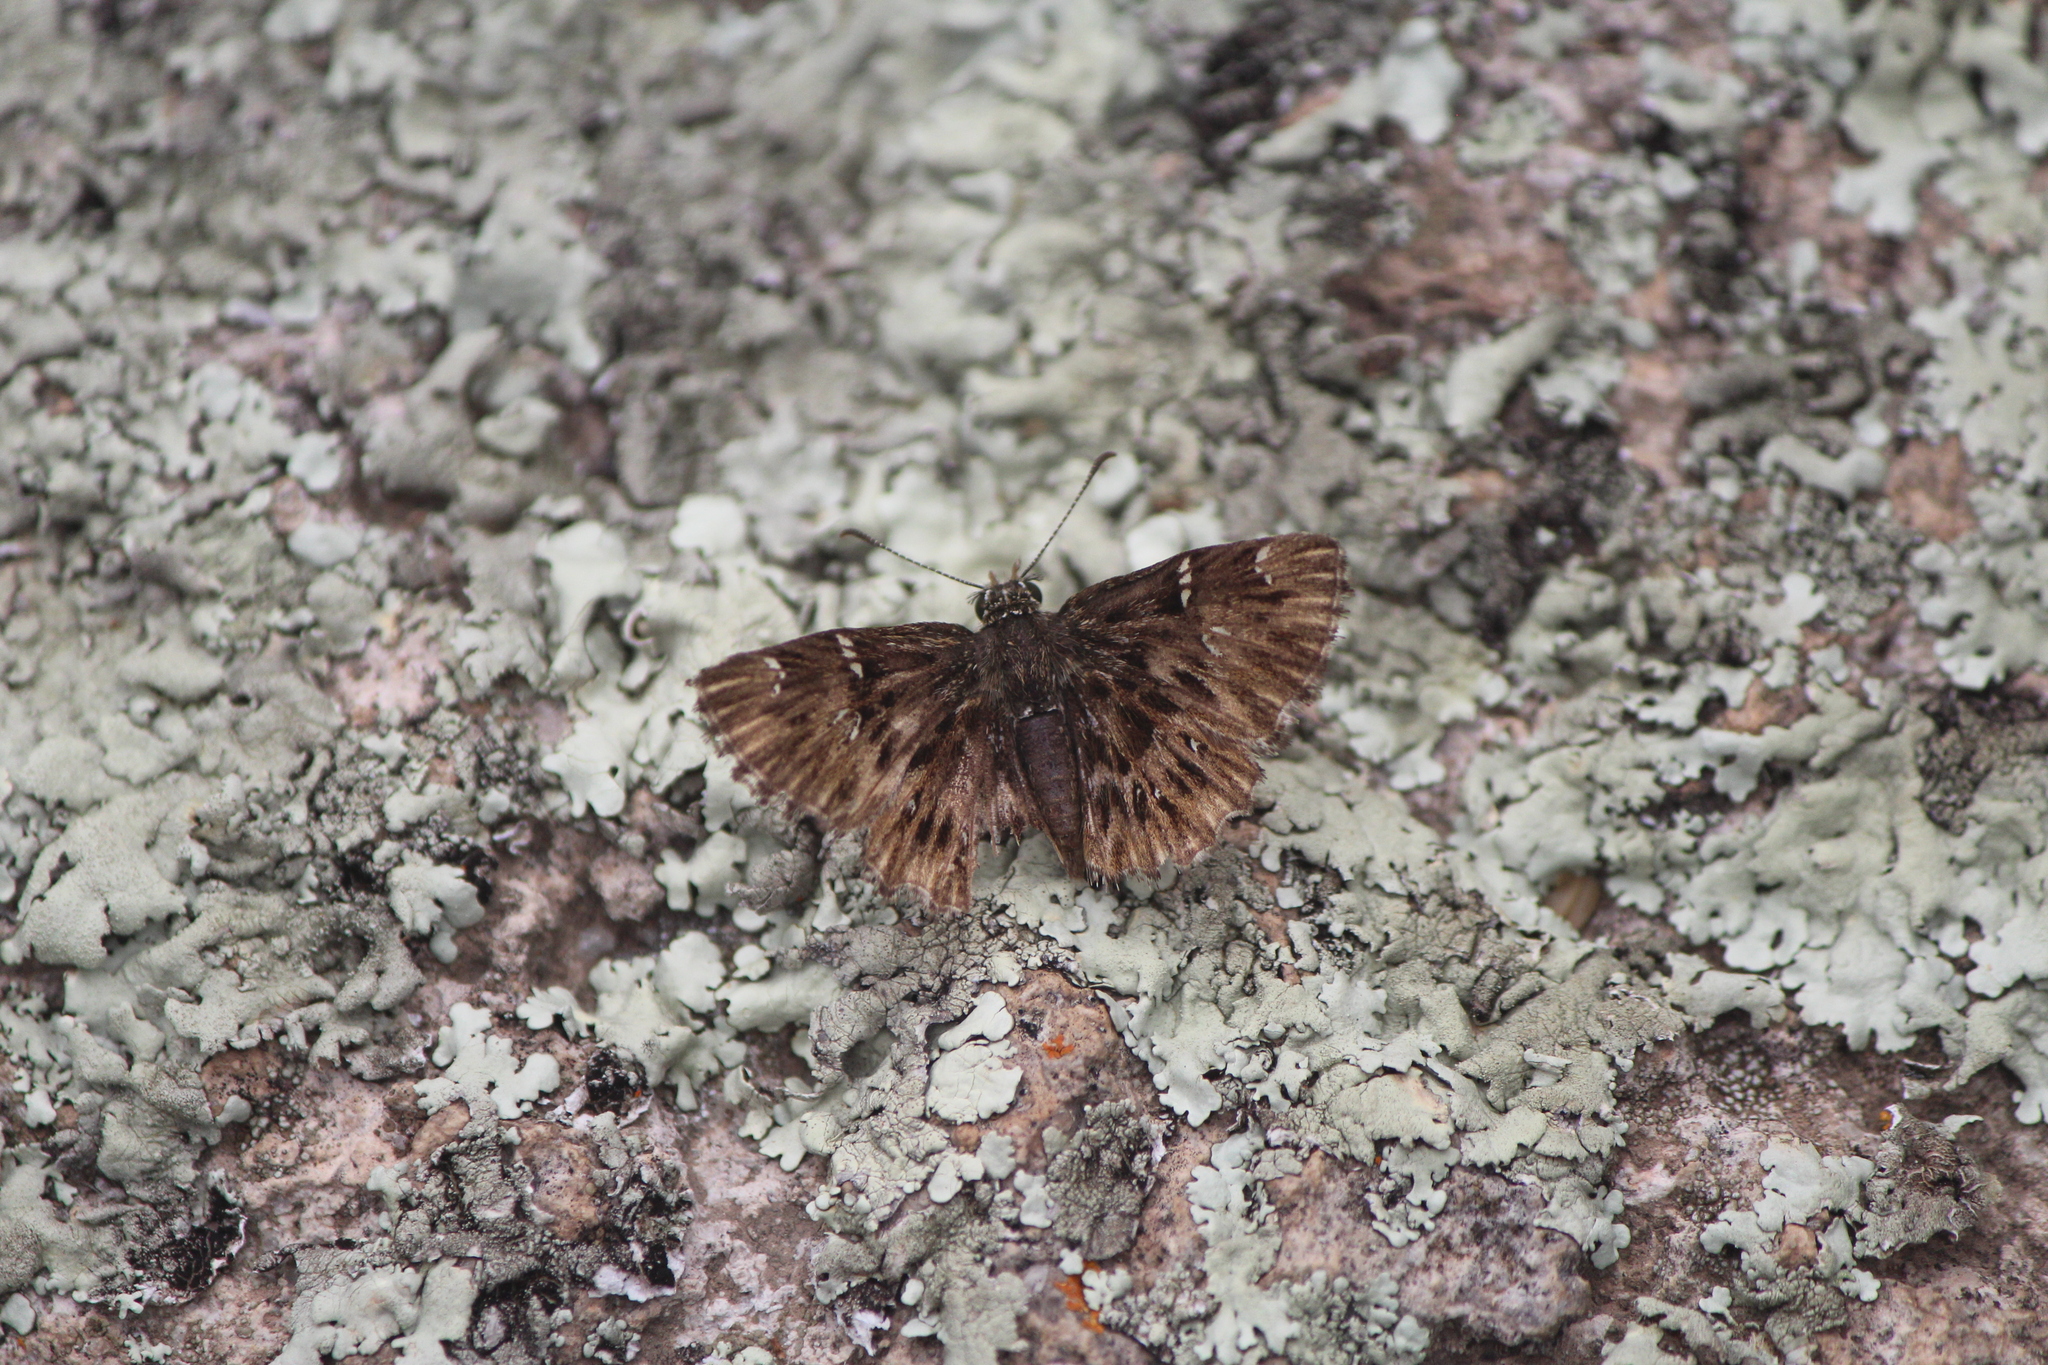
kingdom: Animalia
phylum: Arthropoda
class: Insecta
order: Lepidoptera
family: Hesperiidae
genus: Celotes
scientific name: Celotes spurcus
